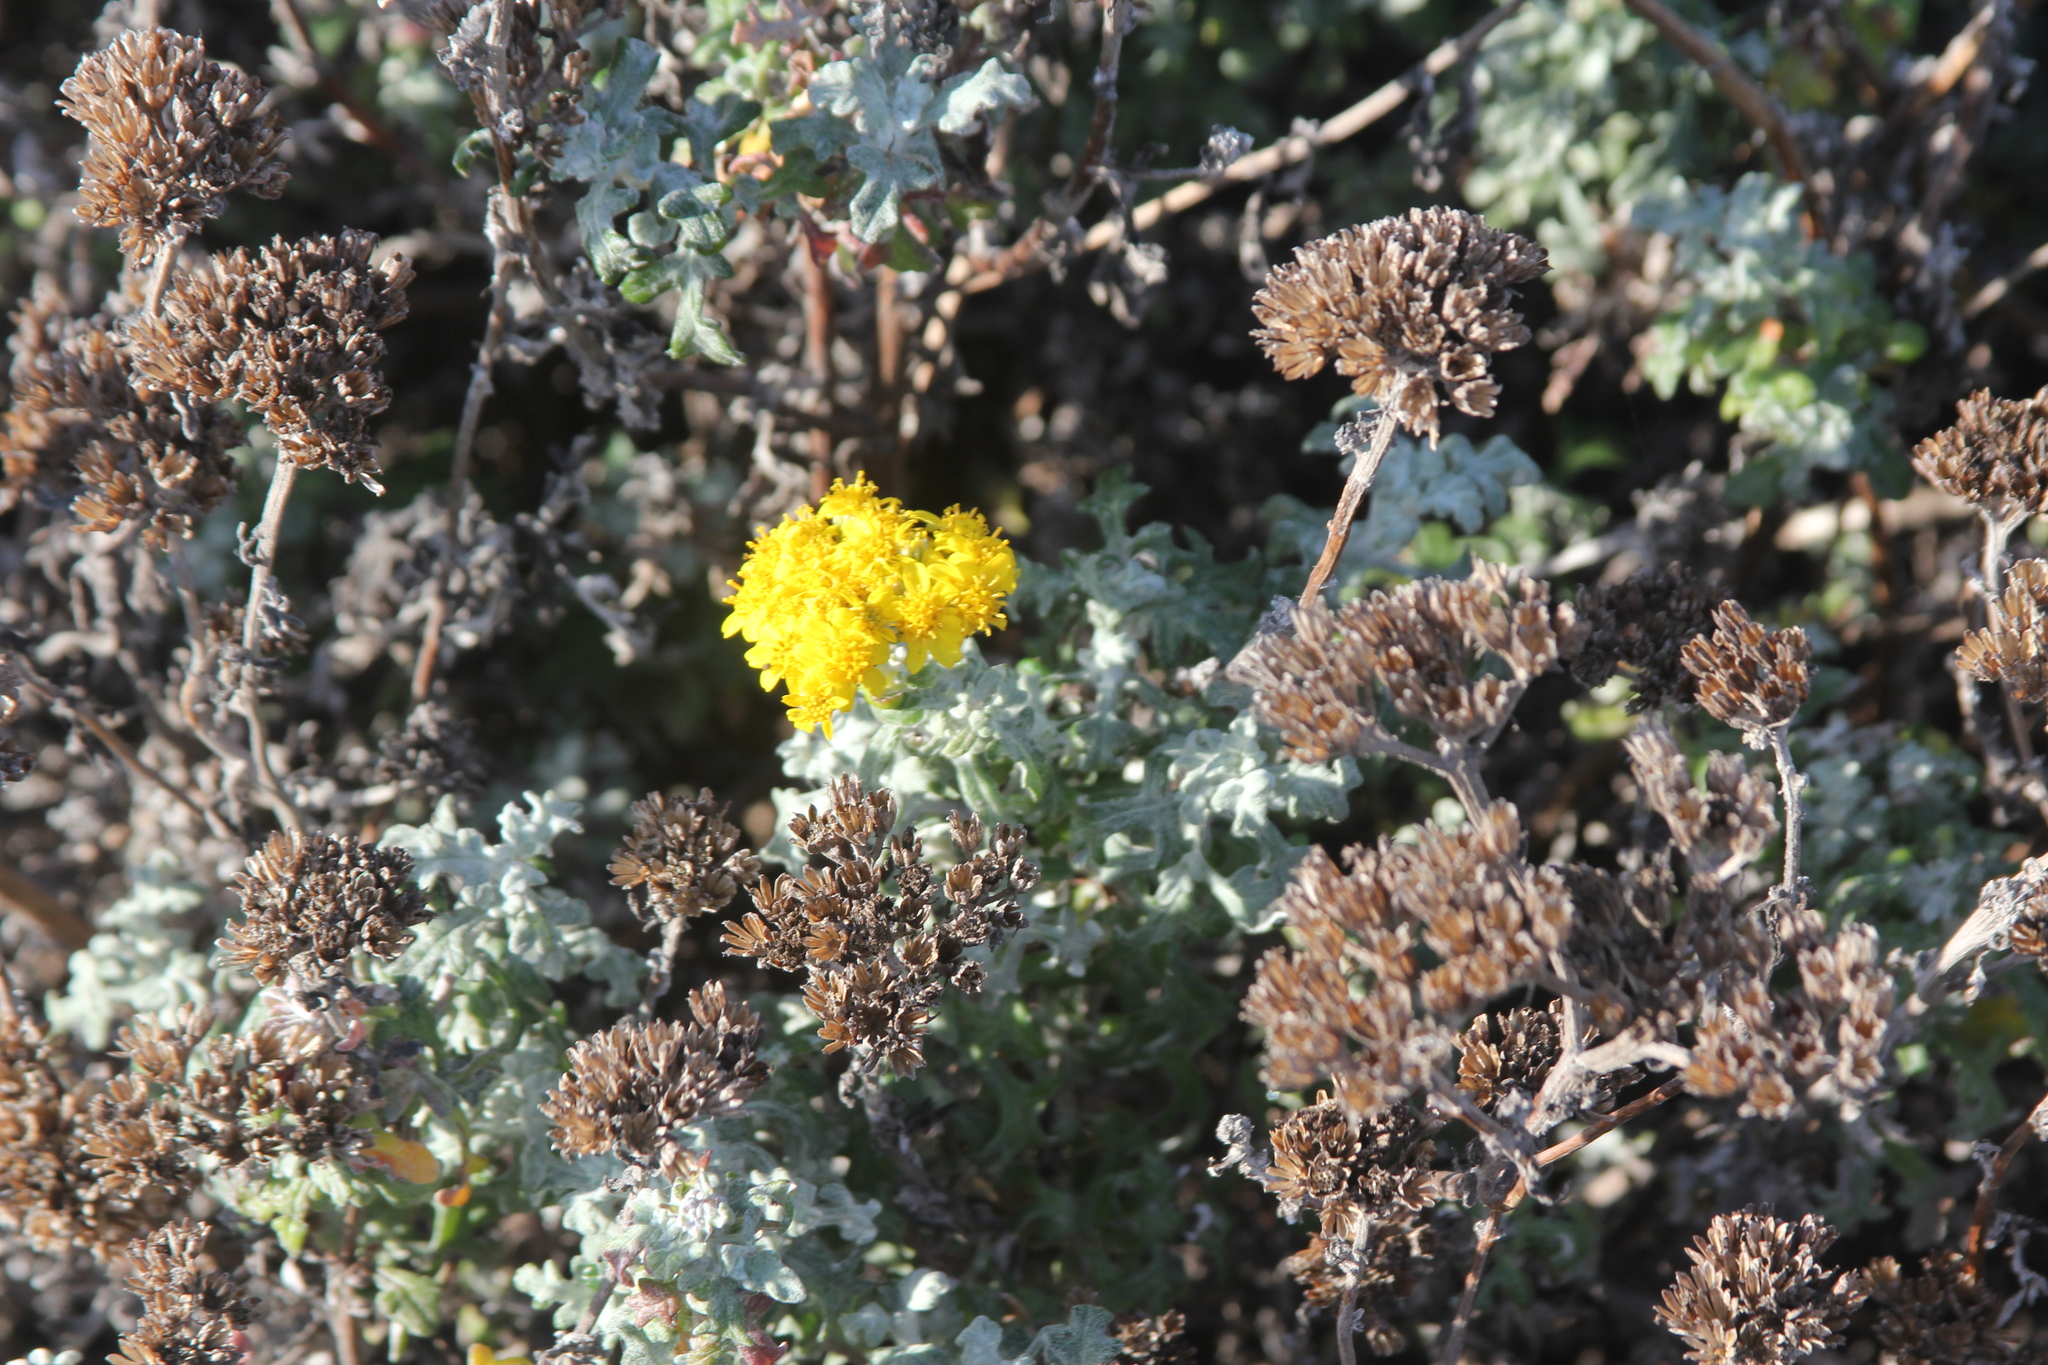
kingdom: Plantae
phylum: Tracheophyta
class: Magnoliopsida
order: Asterales
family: Asteraceae
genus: Eriophyllum
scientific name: Eriophyllum staechadifolium
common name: Lizardtail
